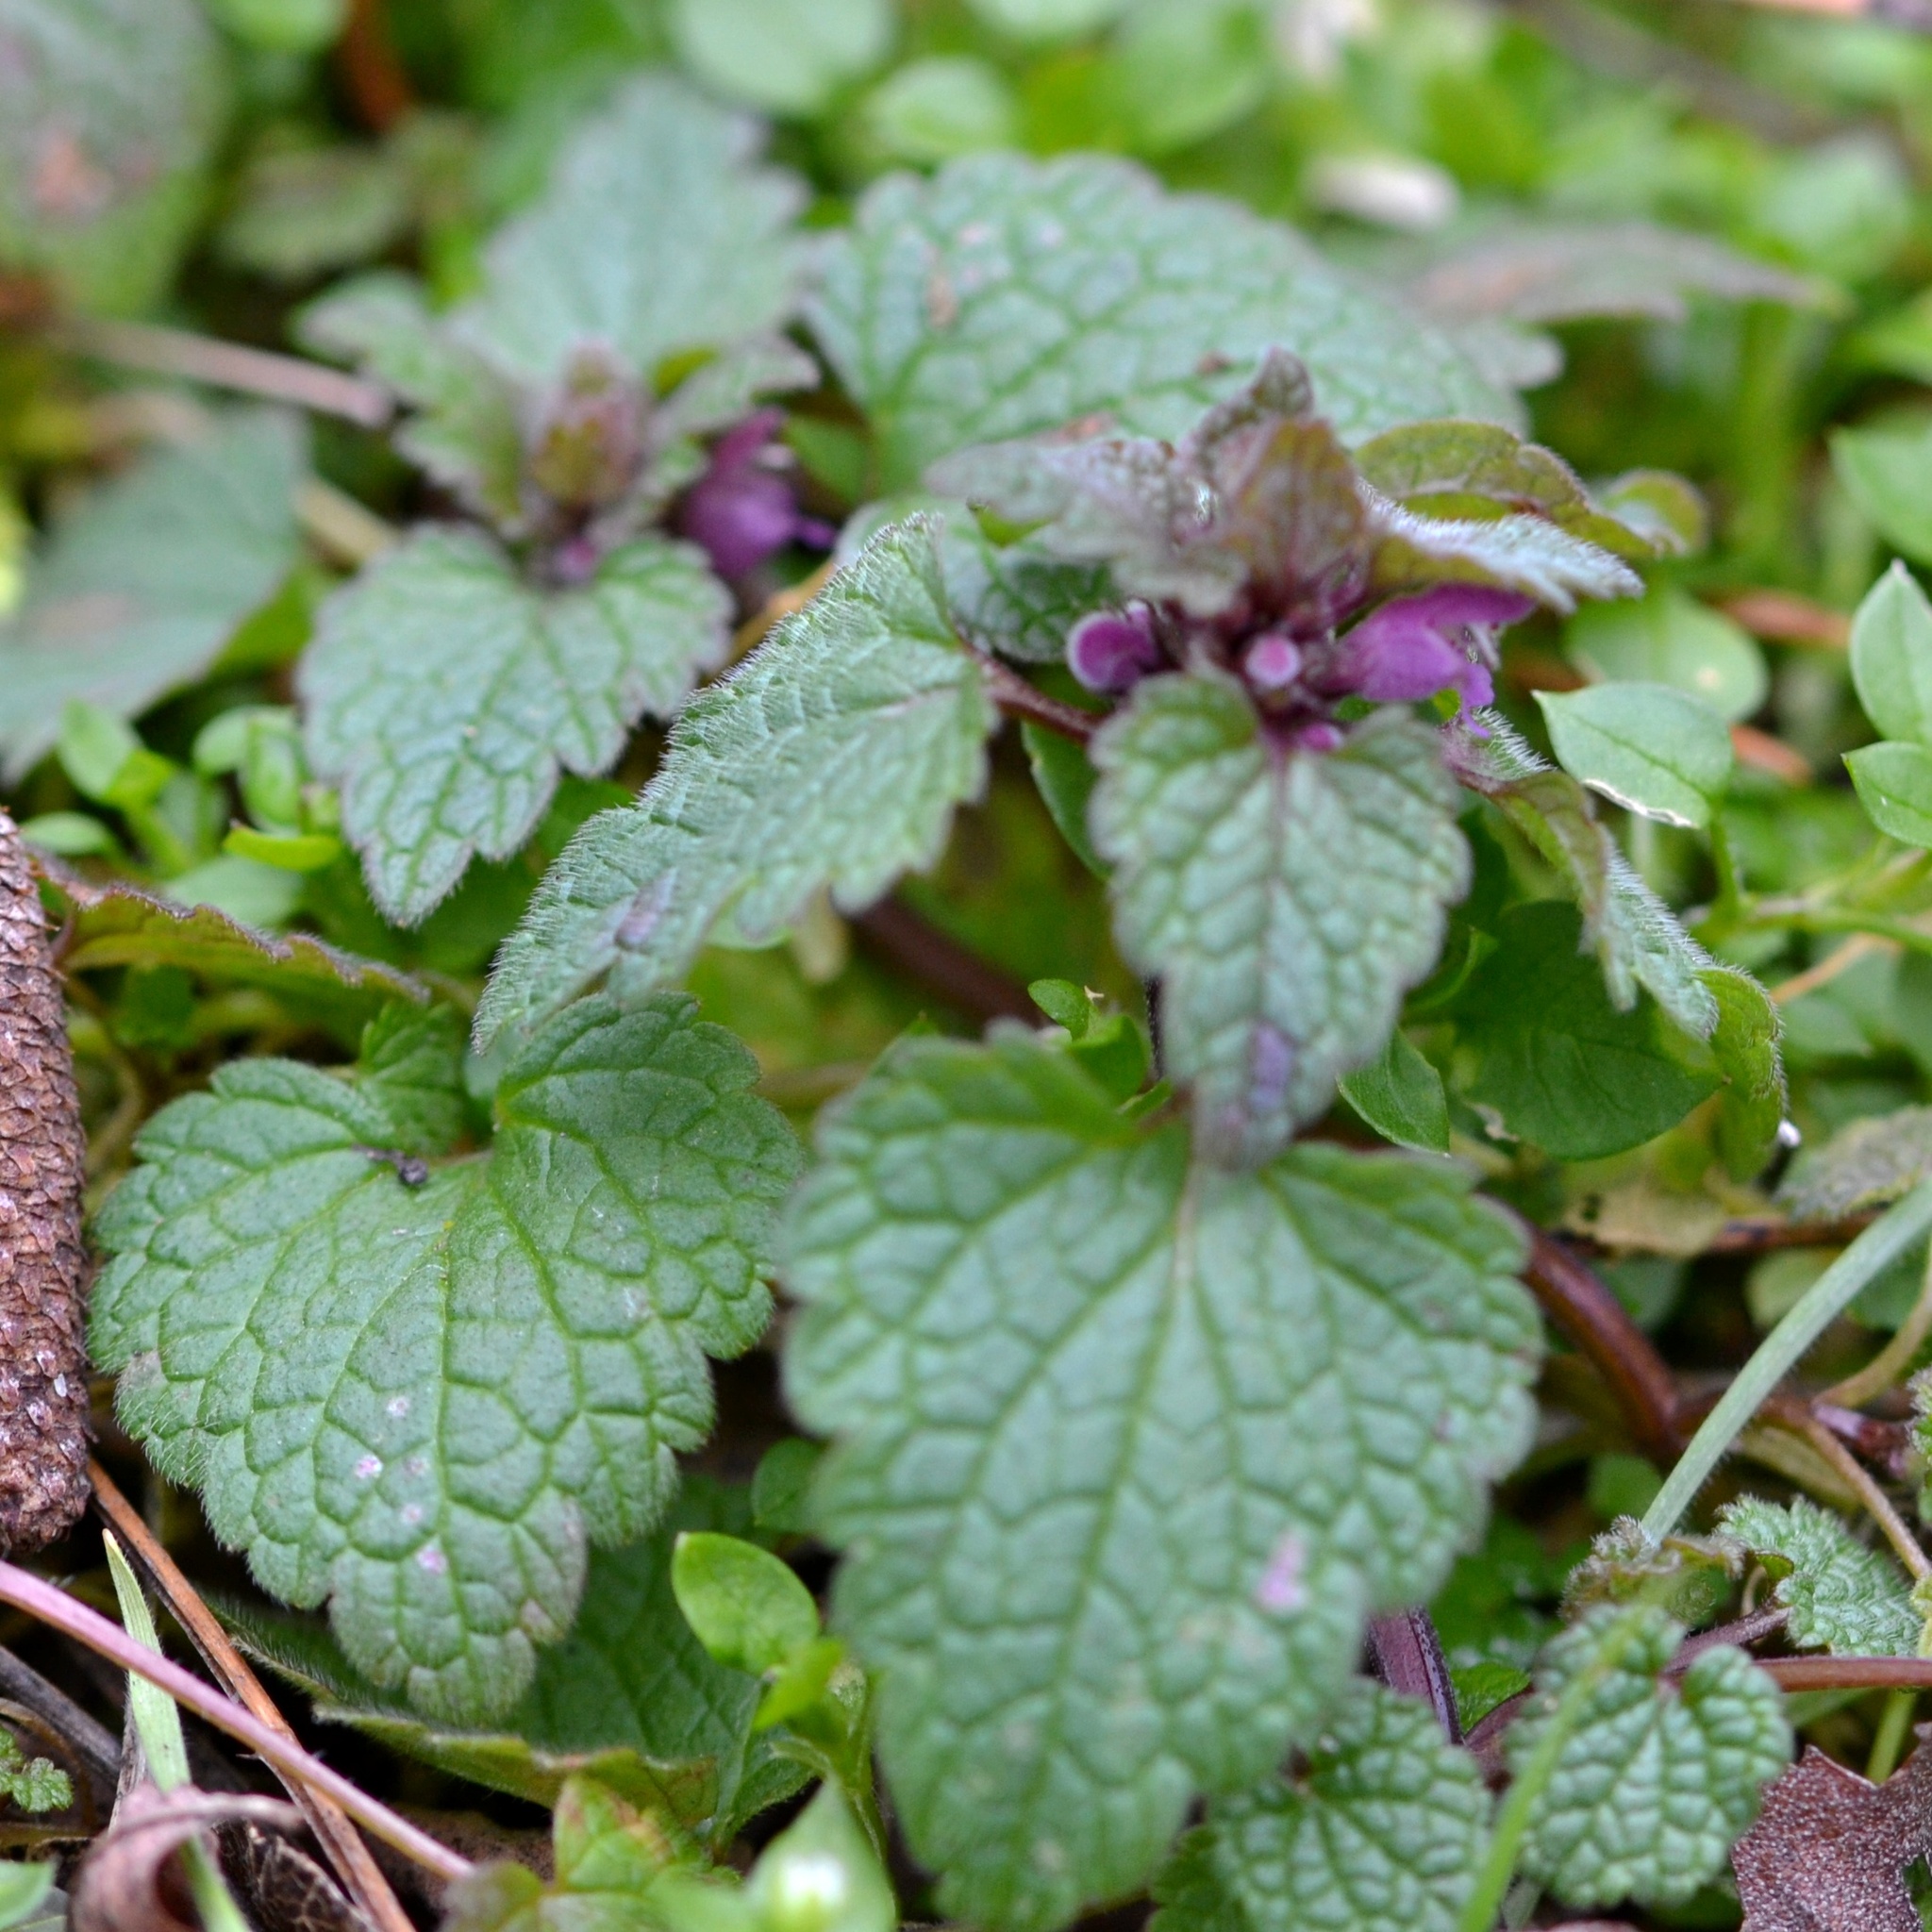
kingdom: Plantae
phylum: Tracheophyta
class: Magnoliopsida
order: Lamiales
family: Lamiaceae
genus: Lamium
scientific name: Lamium purpureum
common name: Red dead-nettle
